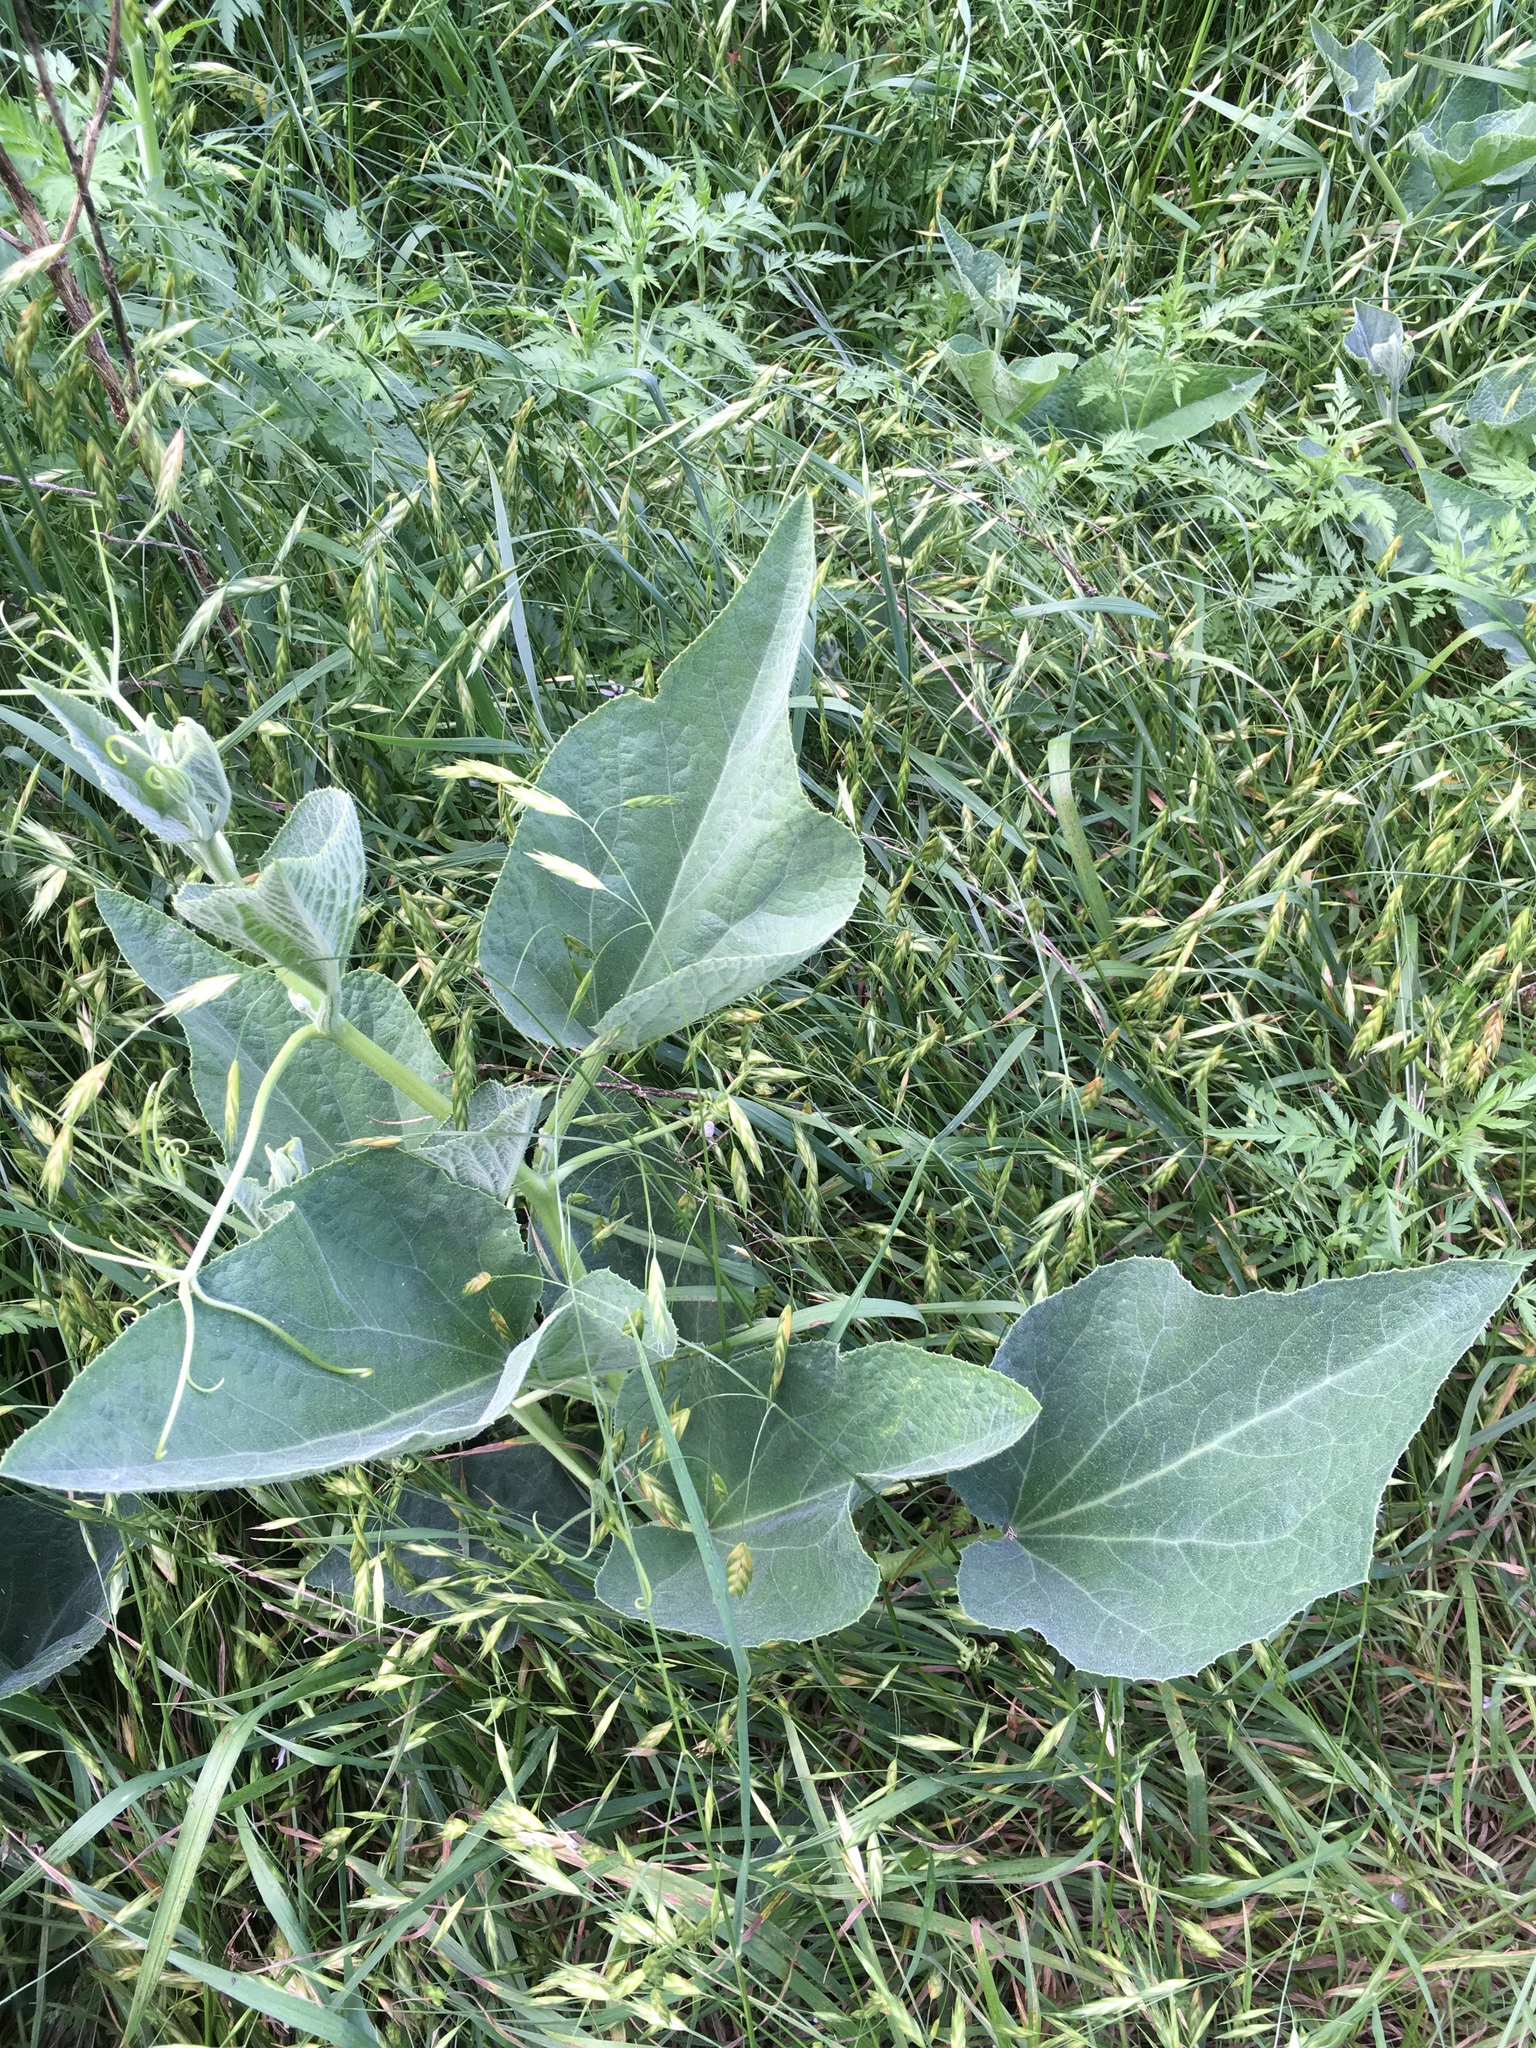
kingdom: Plantae
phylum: Tracheophyta
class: Magnoliopsida
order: Cucurbitales
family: Cucurbitaceae
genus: Cucurbita
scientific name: Cucurbita foetidissima
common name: Buffalo gourd
